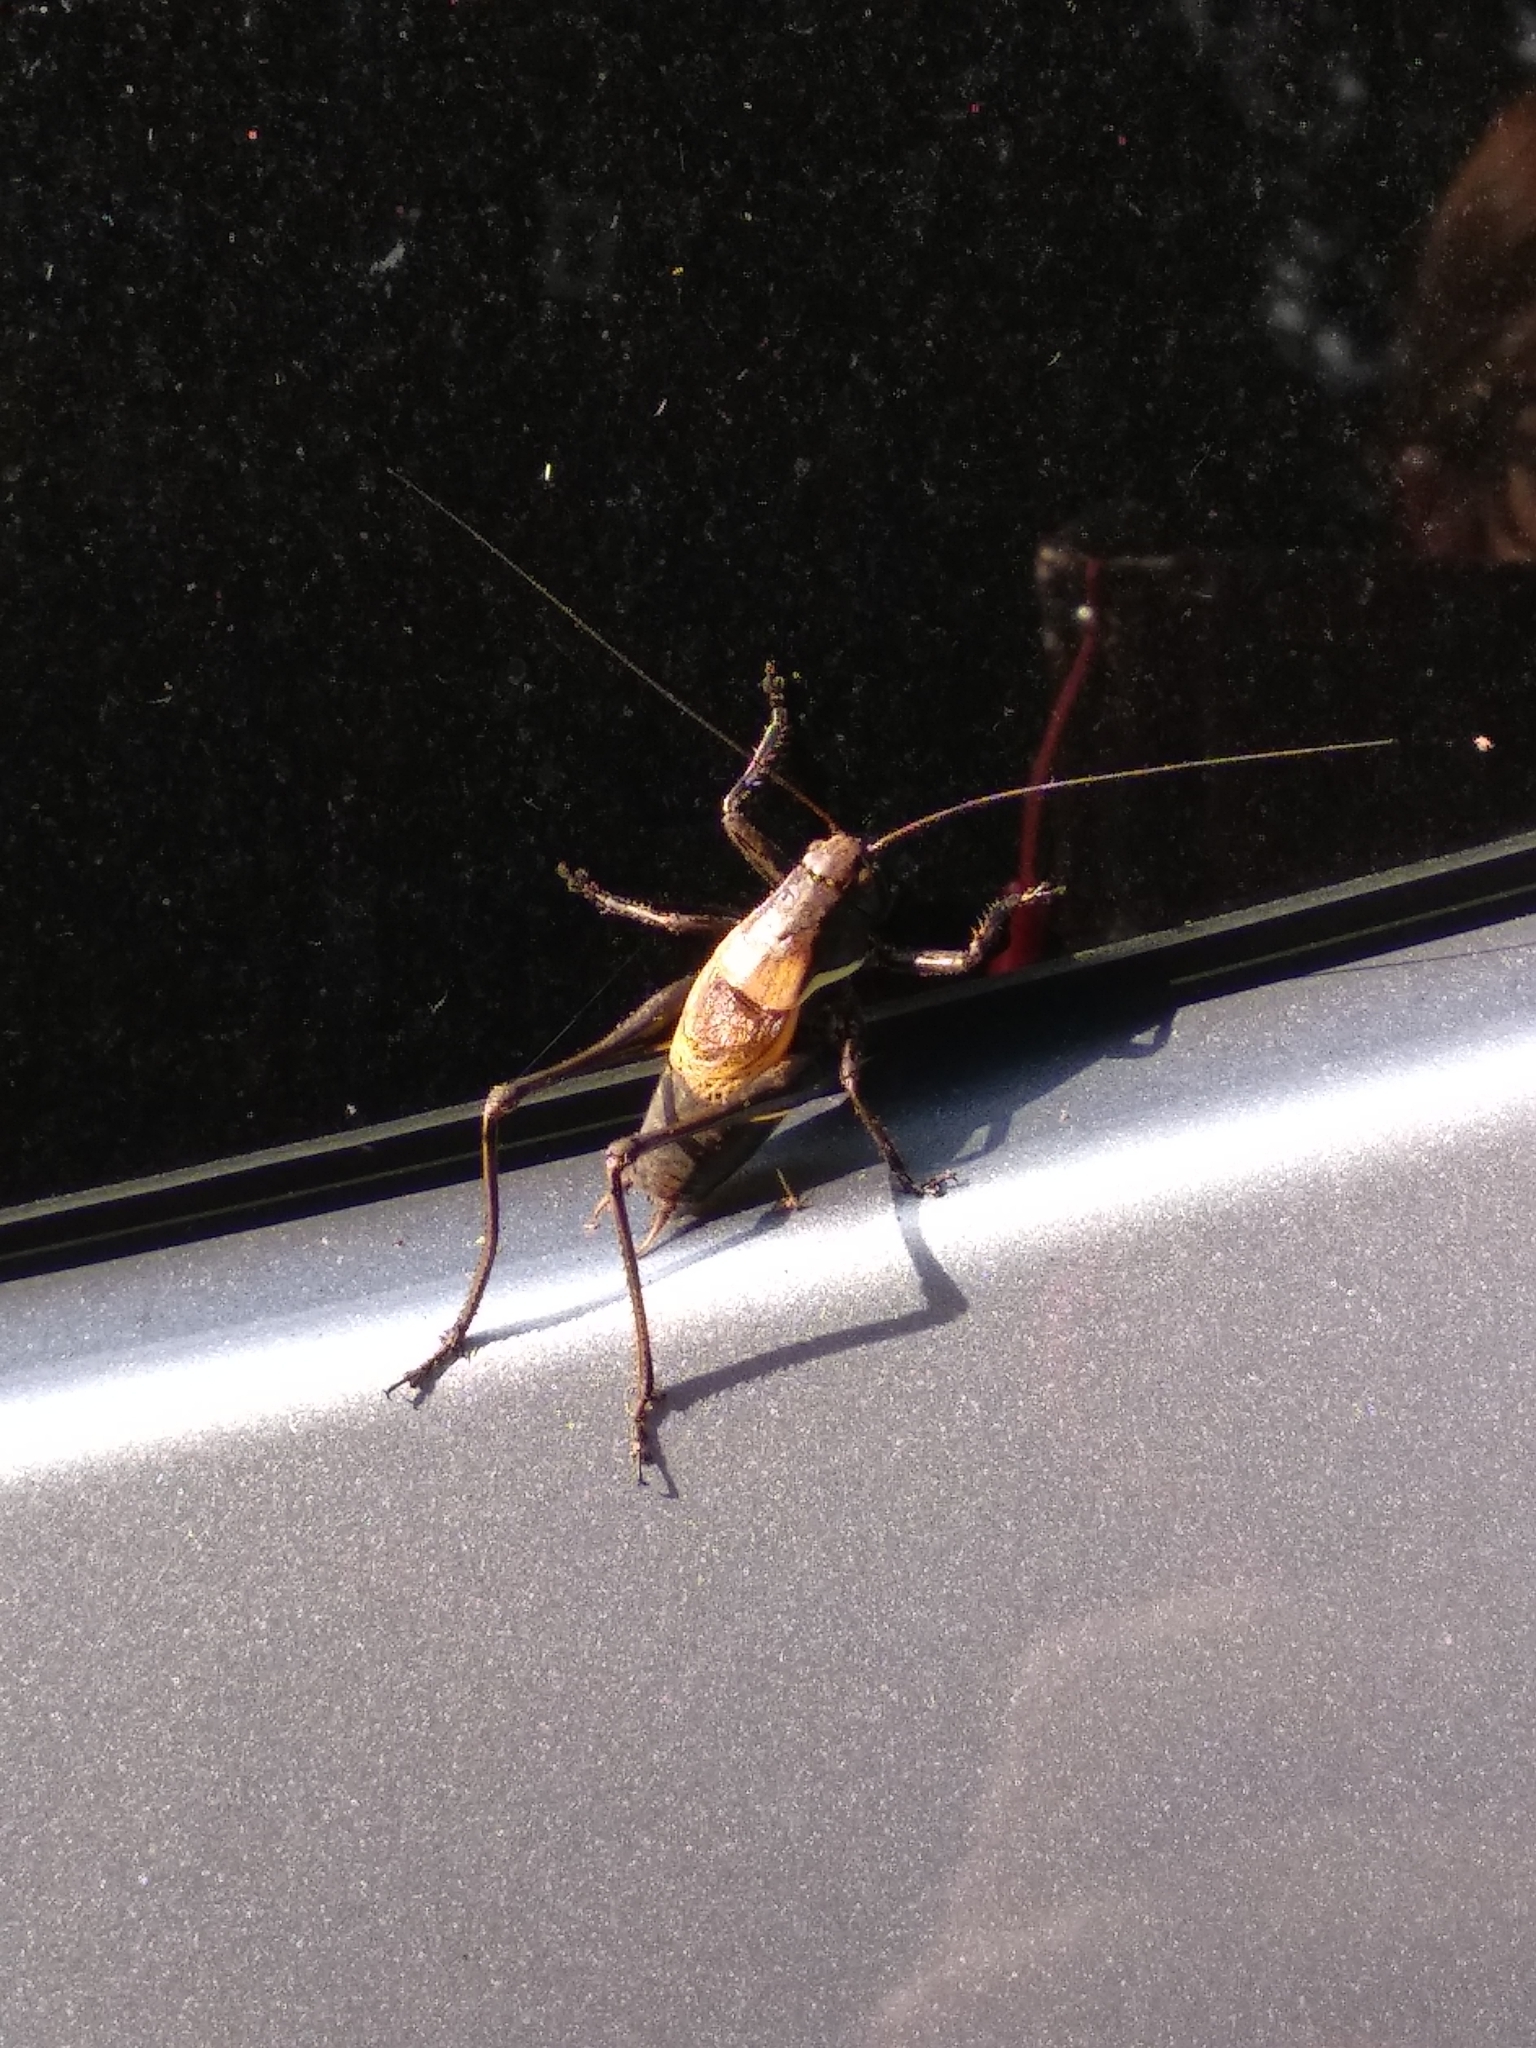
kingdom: Animalia
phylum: Arthropoda
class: Insecta
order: Orthoptera
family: Tettigoniidae
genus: Pholidoptera
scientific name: Pholidoptera aptera
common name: Alpine dark bush-cricket
